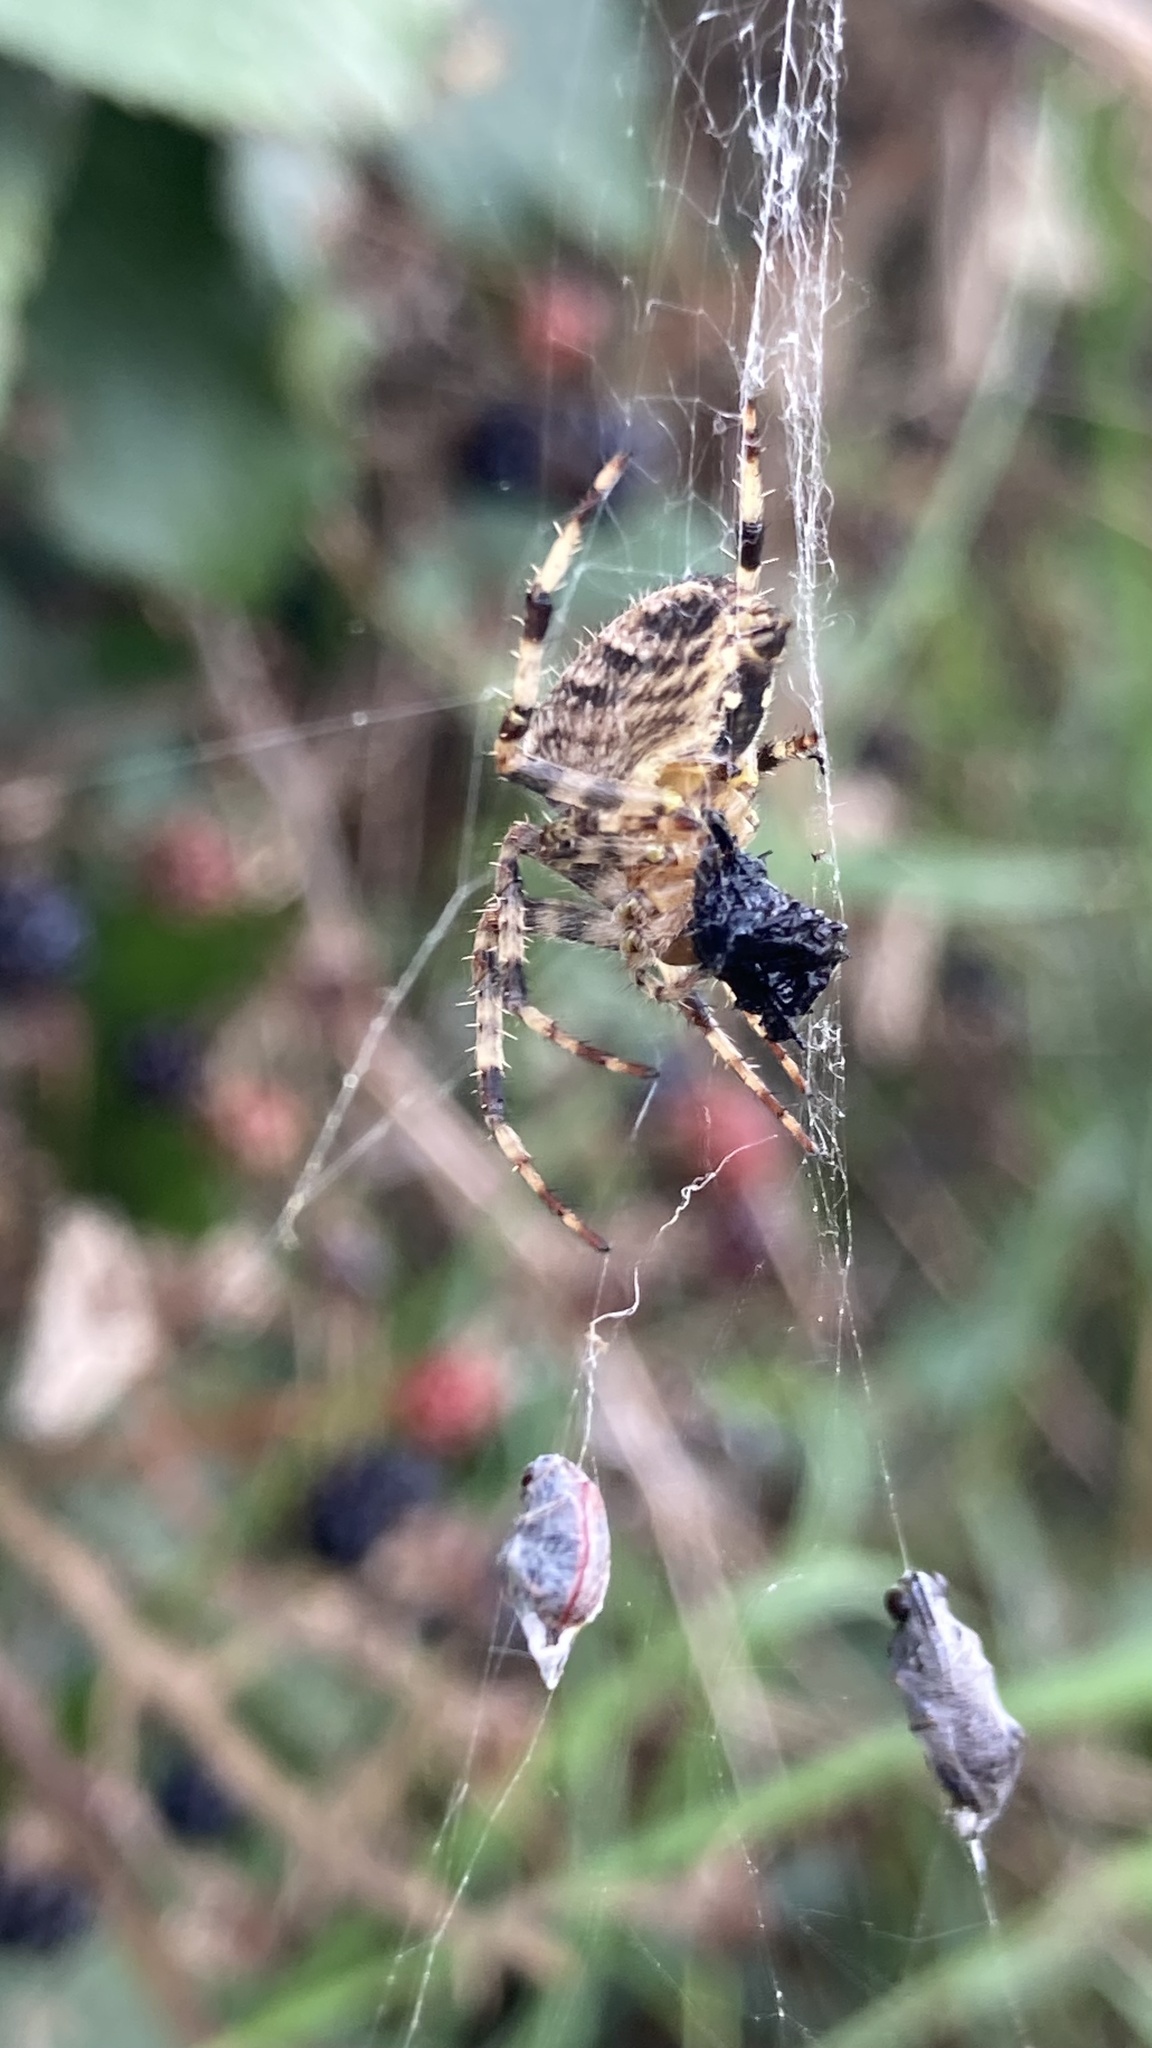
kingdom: Animalia
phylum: Arthropoda
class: Arachnida
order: Araneae
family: Araneidae
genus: Araneus
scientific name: Araneus diadematus
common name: Cross orbweaver
